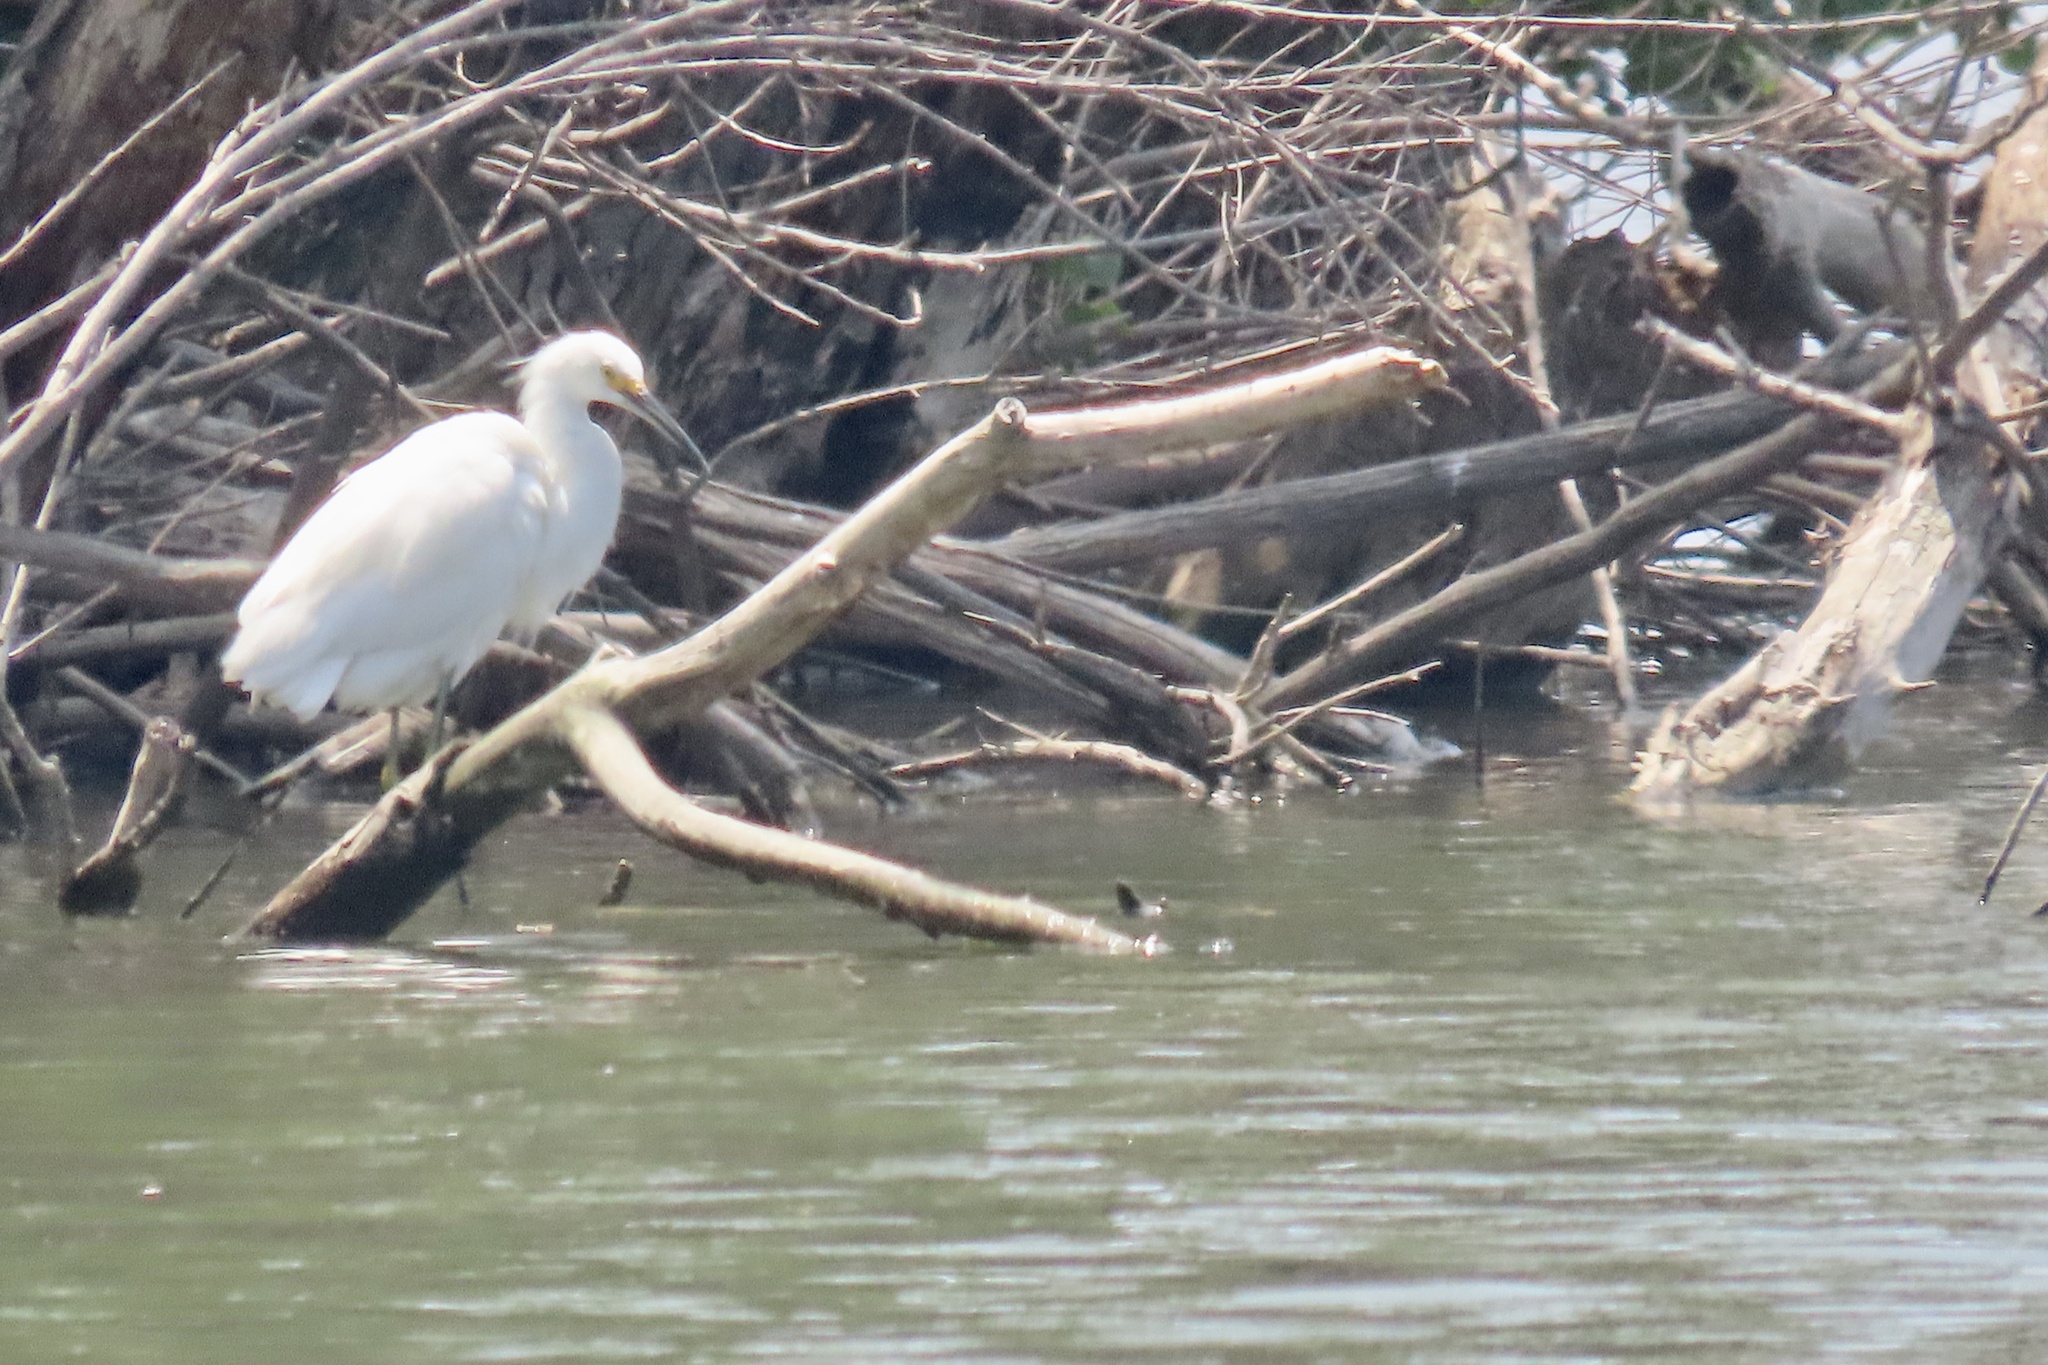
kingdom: Animalia
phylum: Chordata
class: Aves
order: Pelecaniformes
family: Ardeidae
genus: Egretta
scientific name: Egretta thula
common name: Snowy egret
